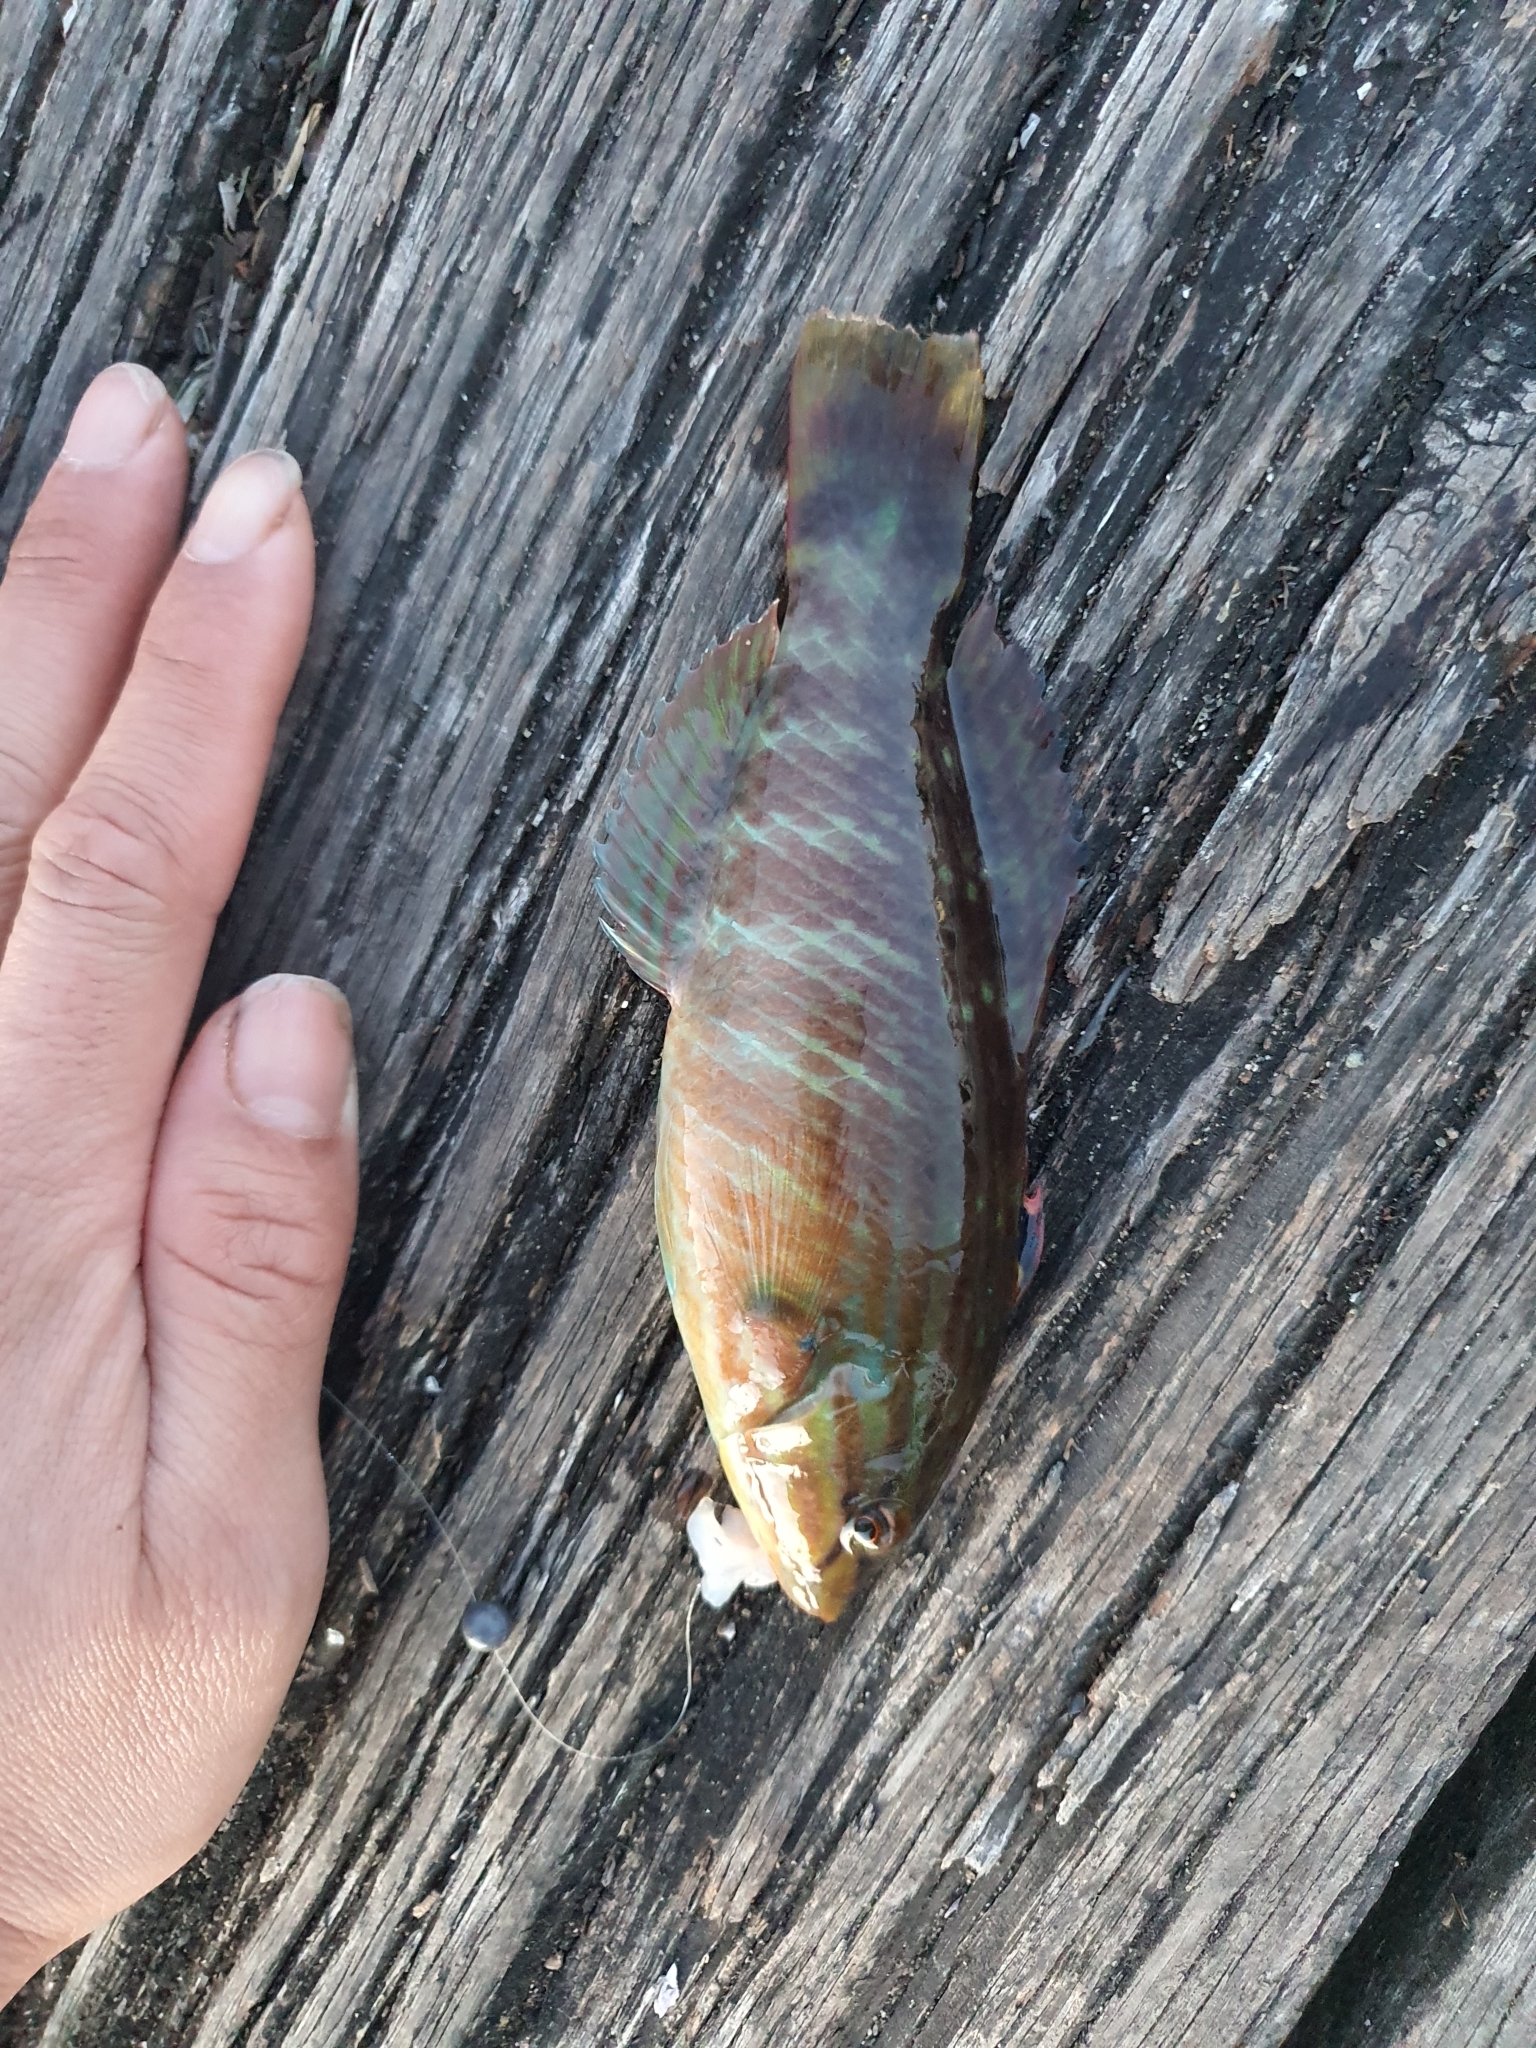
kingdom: Animalia
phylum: Chordata
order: Perciformes
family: Labridae
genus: Pseudolabrus
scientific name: Pseudolabrus guentheri
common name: Günther's wrasse
